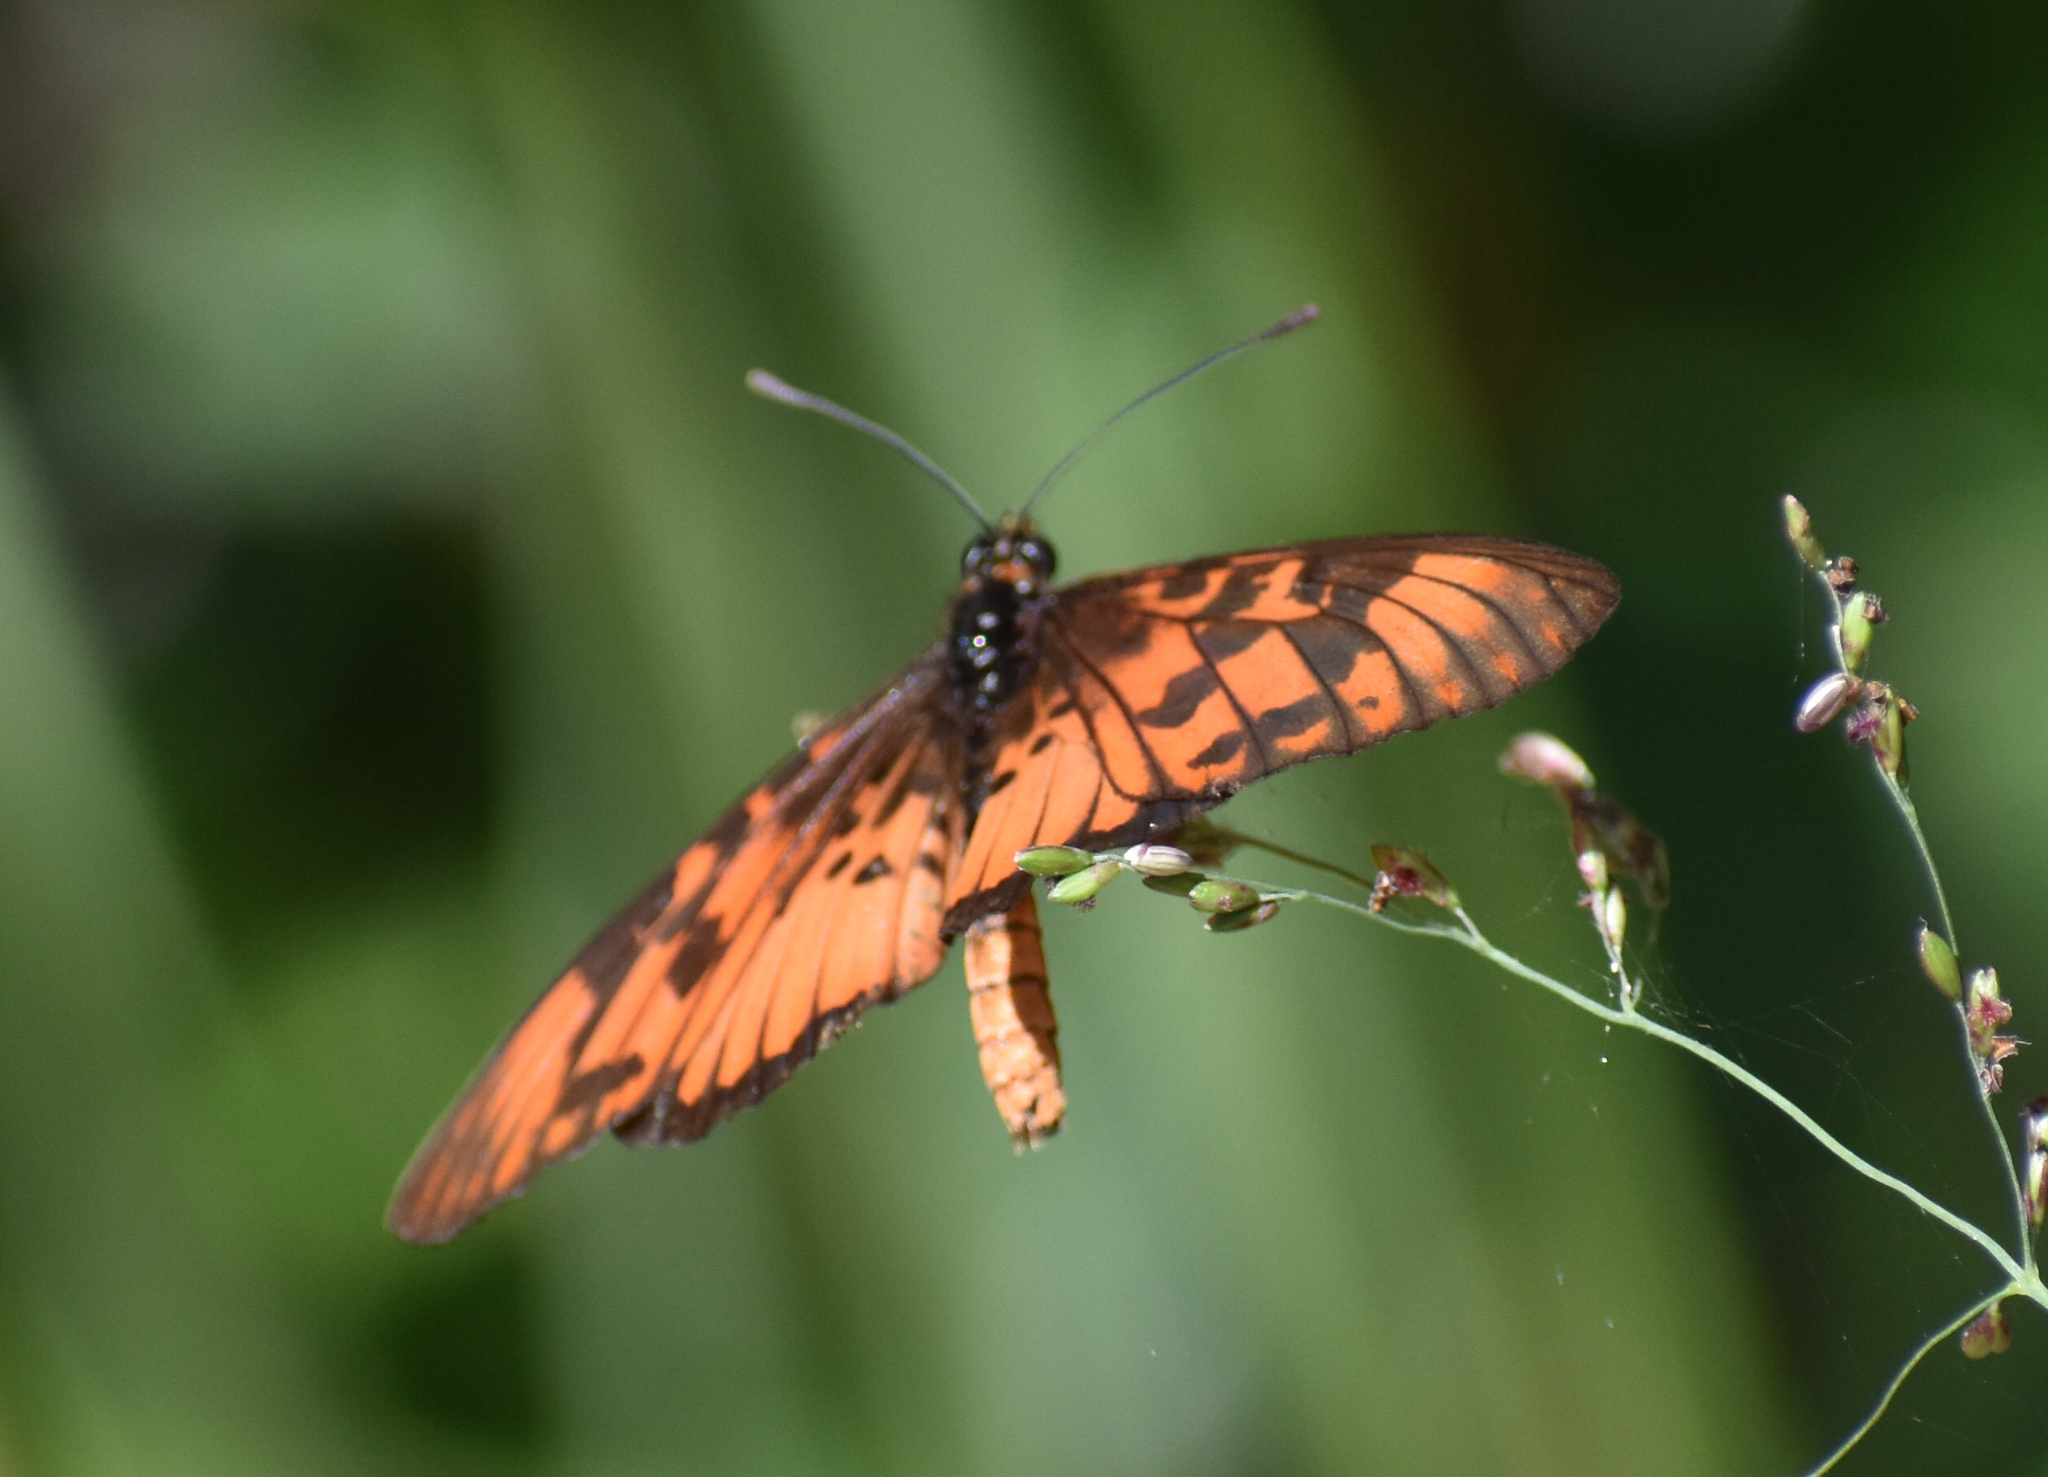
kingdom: Animalia
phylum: Arthropoda
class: Insecta
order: Lepidoptera
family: Nymphalidae
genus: Rubraea
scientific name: Rubraea
